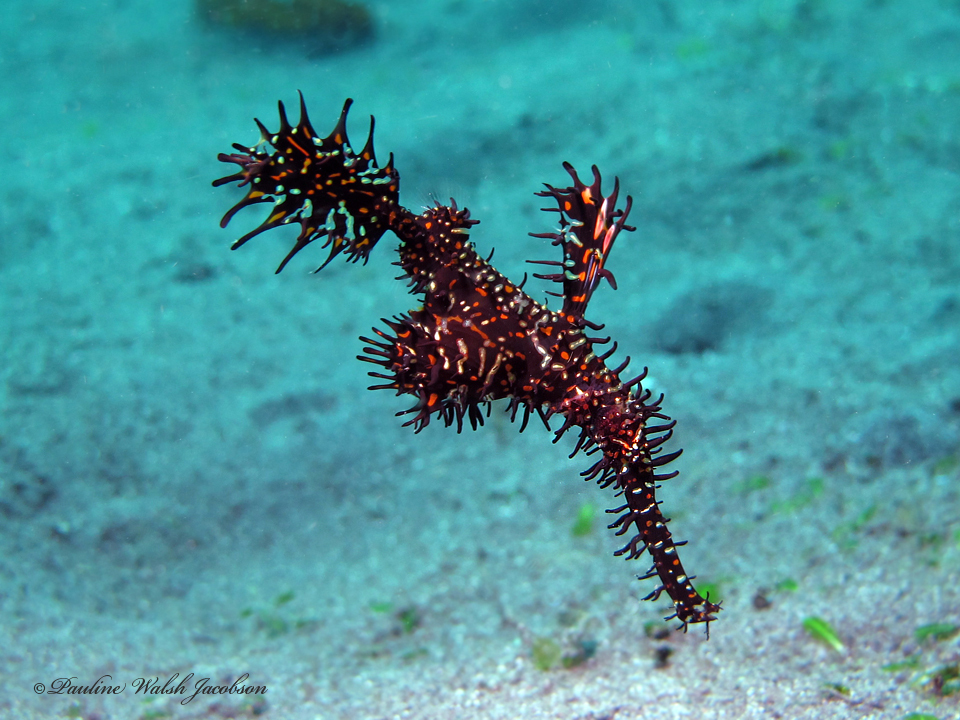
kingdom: Animalia
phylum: Chordata
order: Syngnathiformes
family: Solenostomidae
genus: Solenostomus
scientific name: Solenostomus paradoxus
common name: Ghost pipefish
